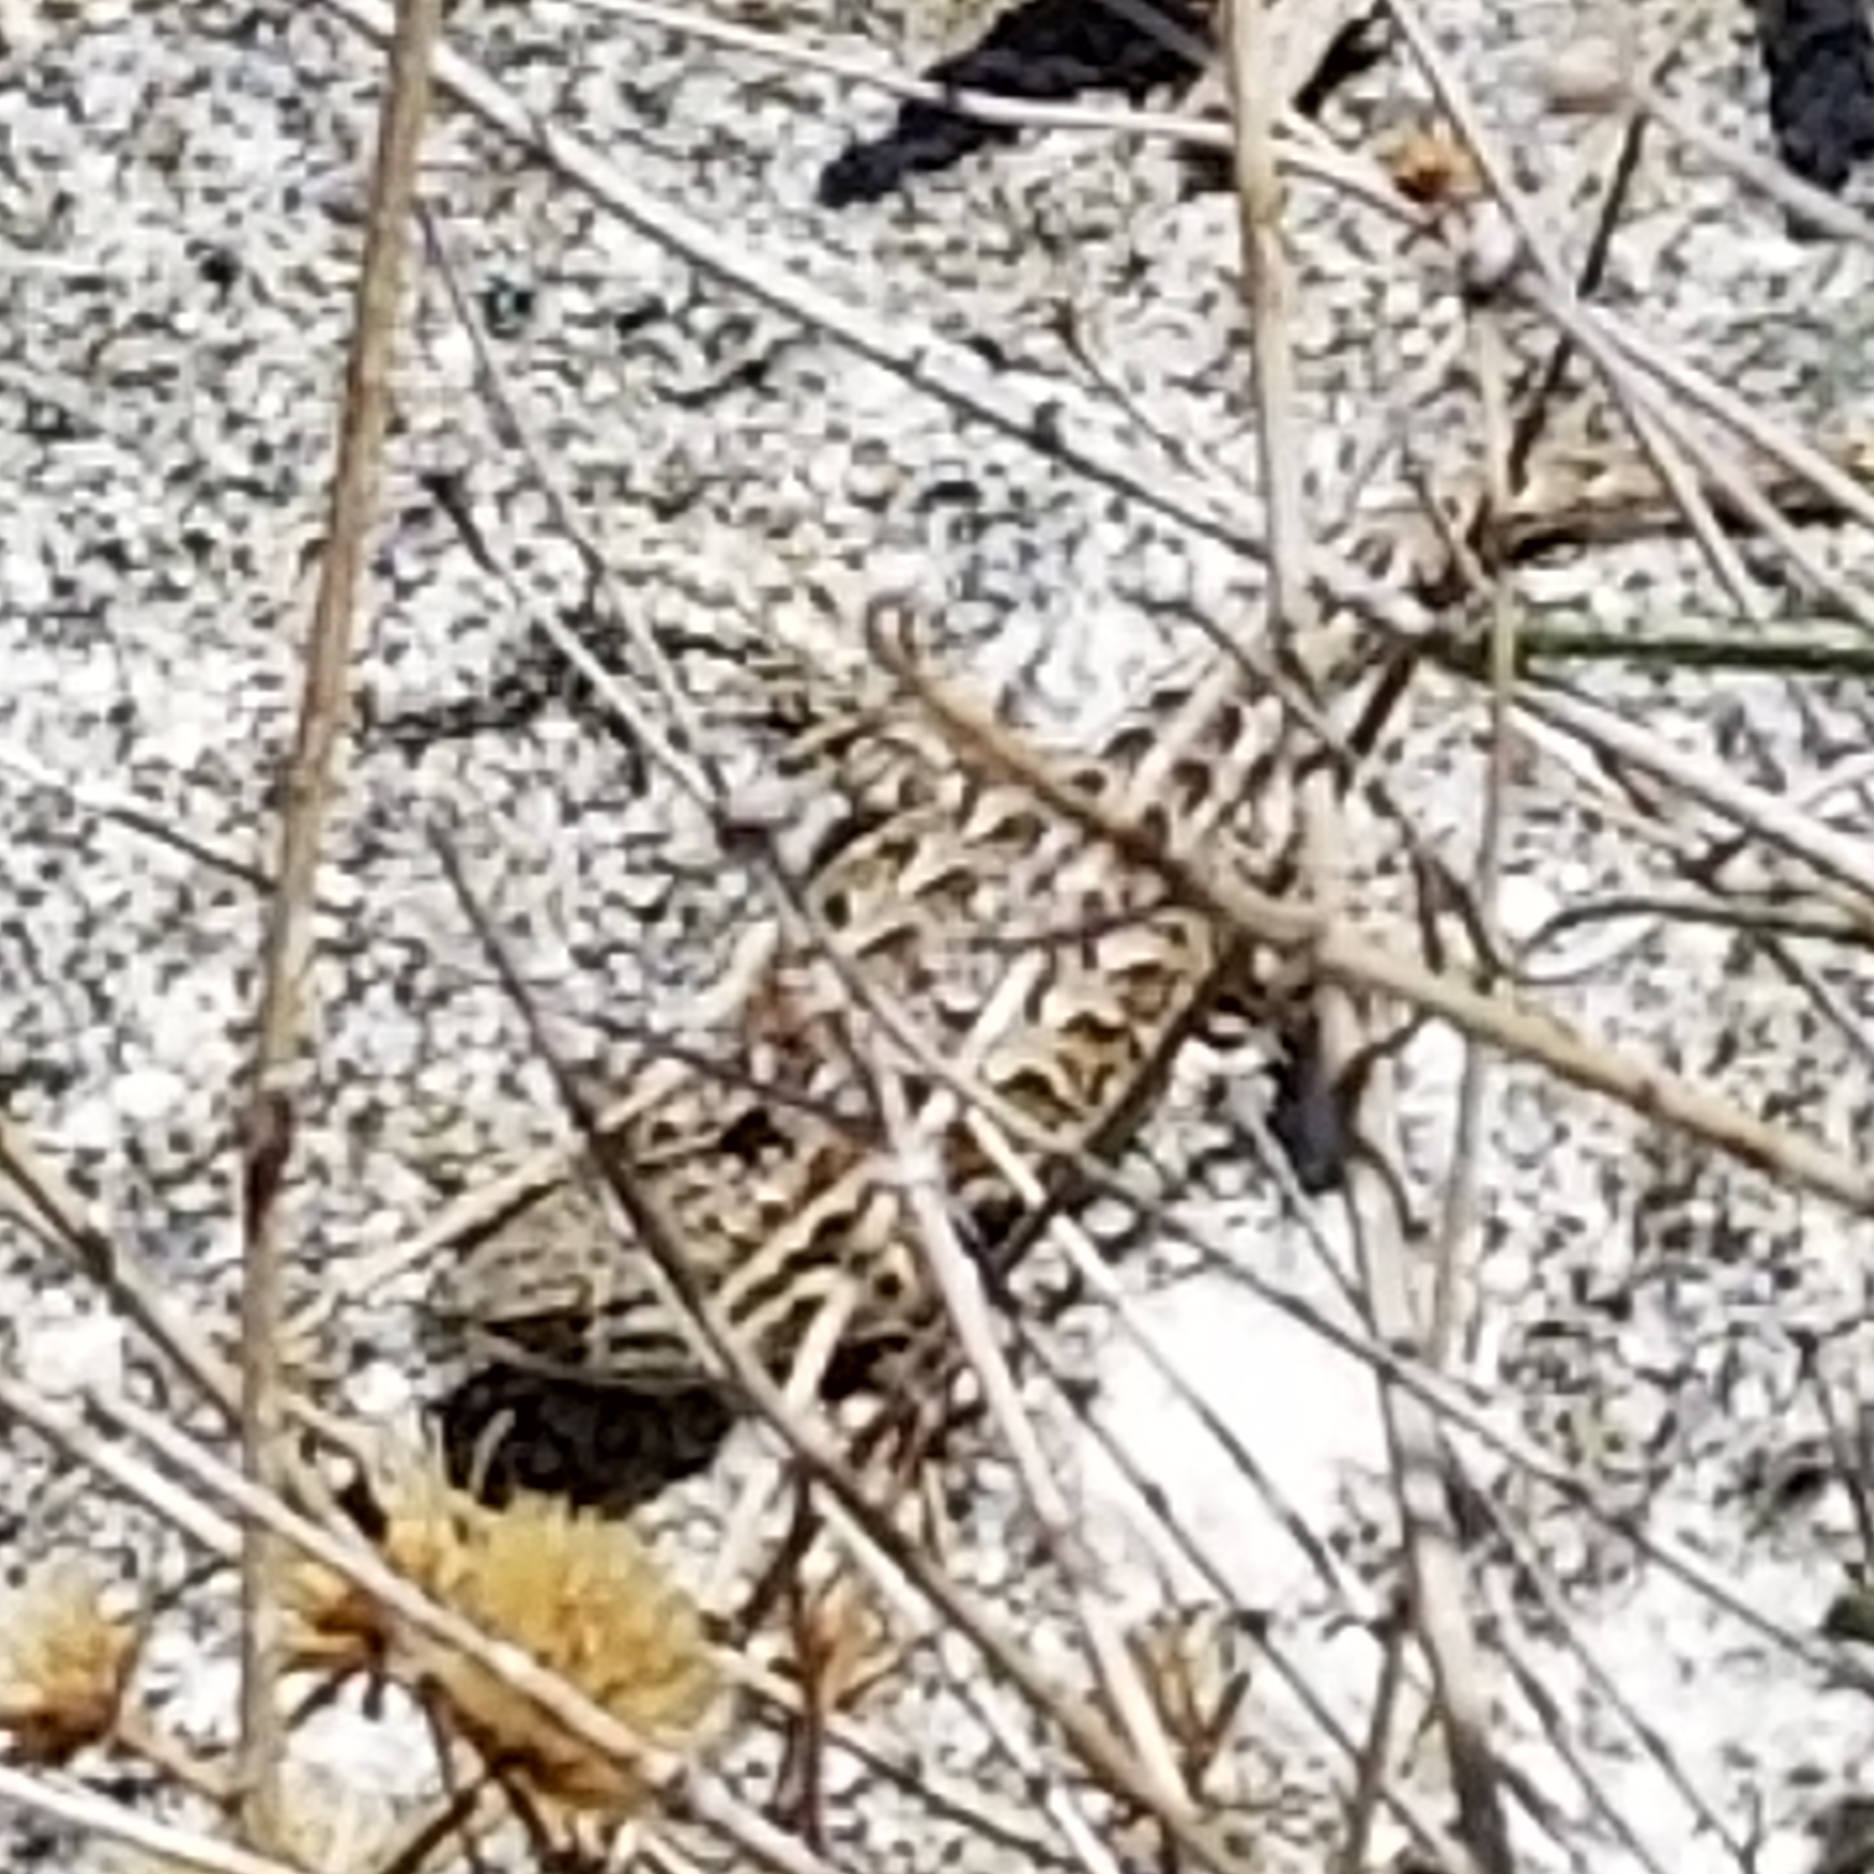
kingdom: Animalia
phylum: Chordata
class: Squamata
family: Phrynosomatidae
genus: Uta
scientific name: Uta stansburiana
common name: Side-blotched lizard
